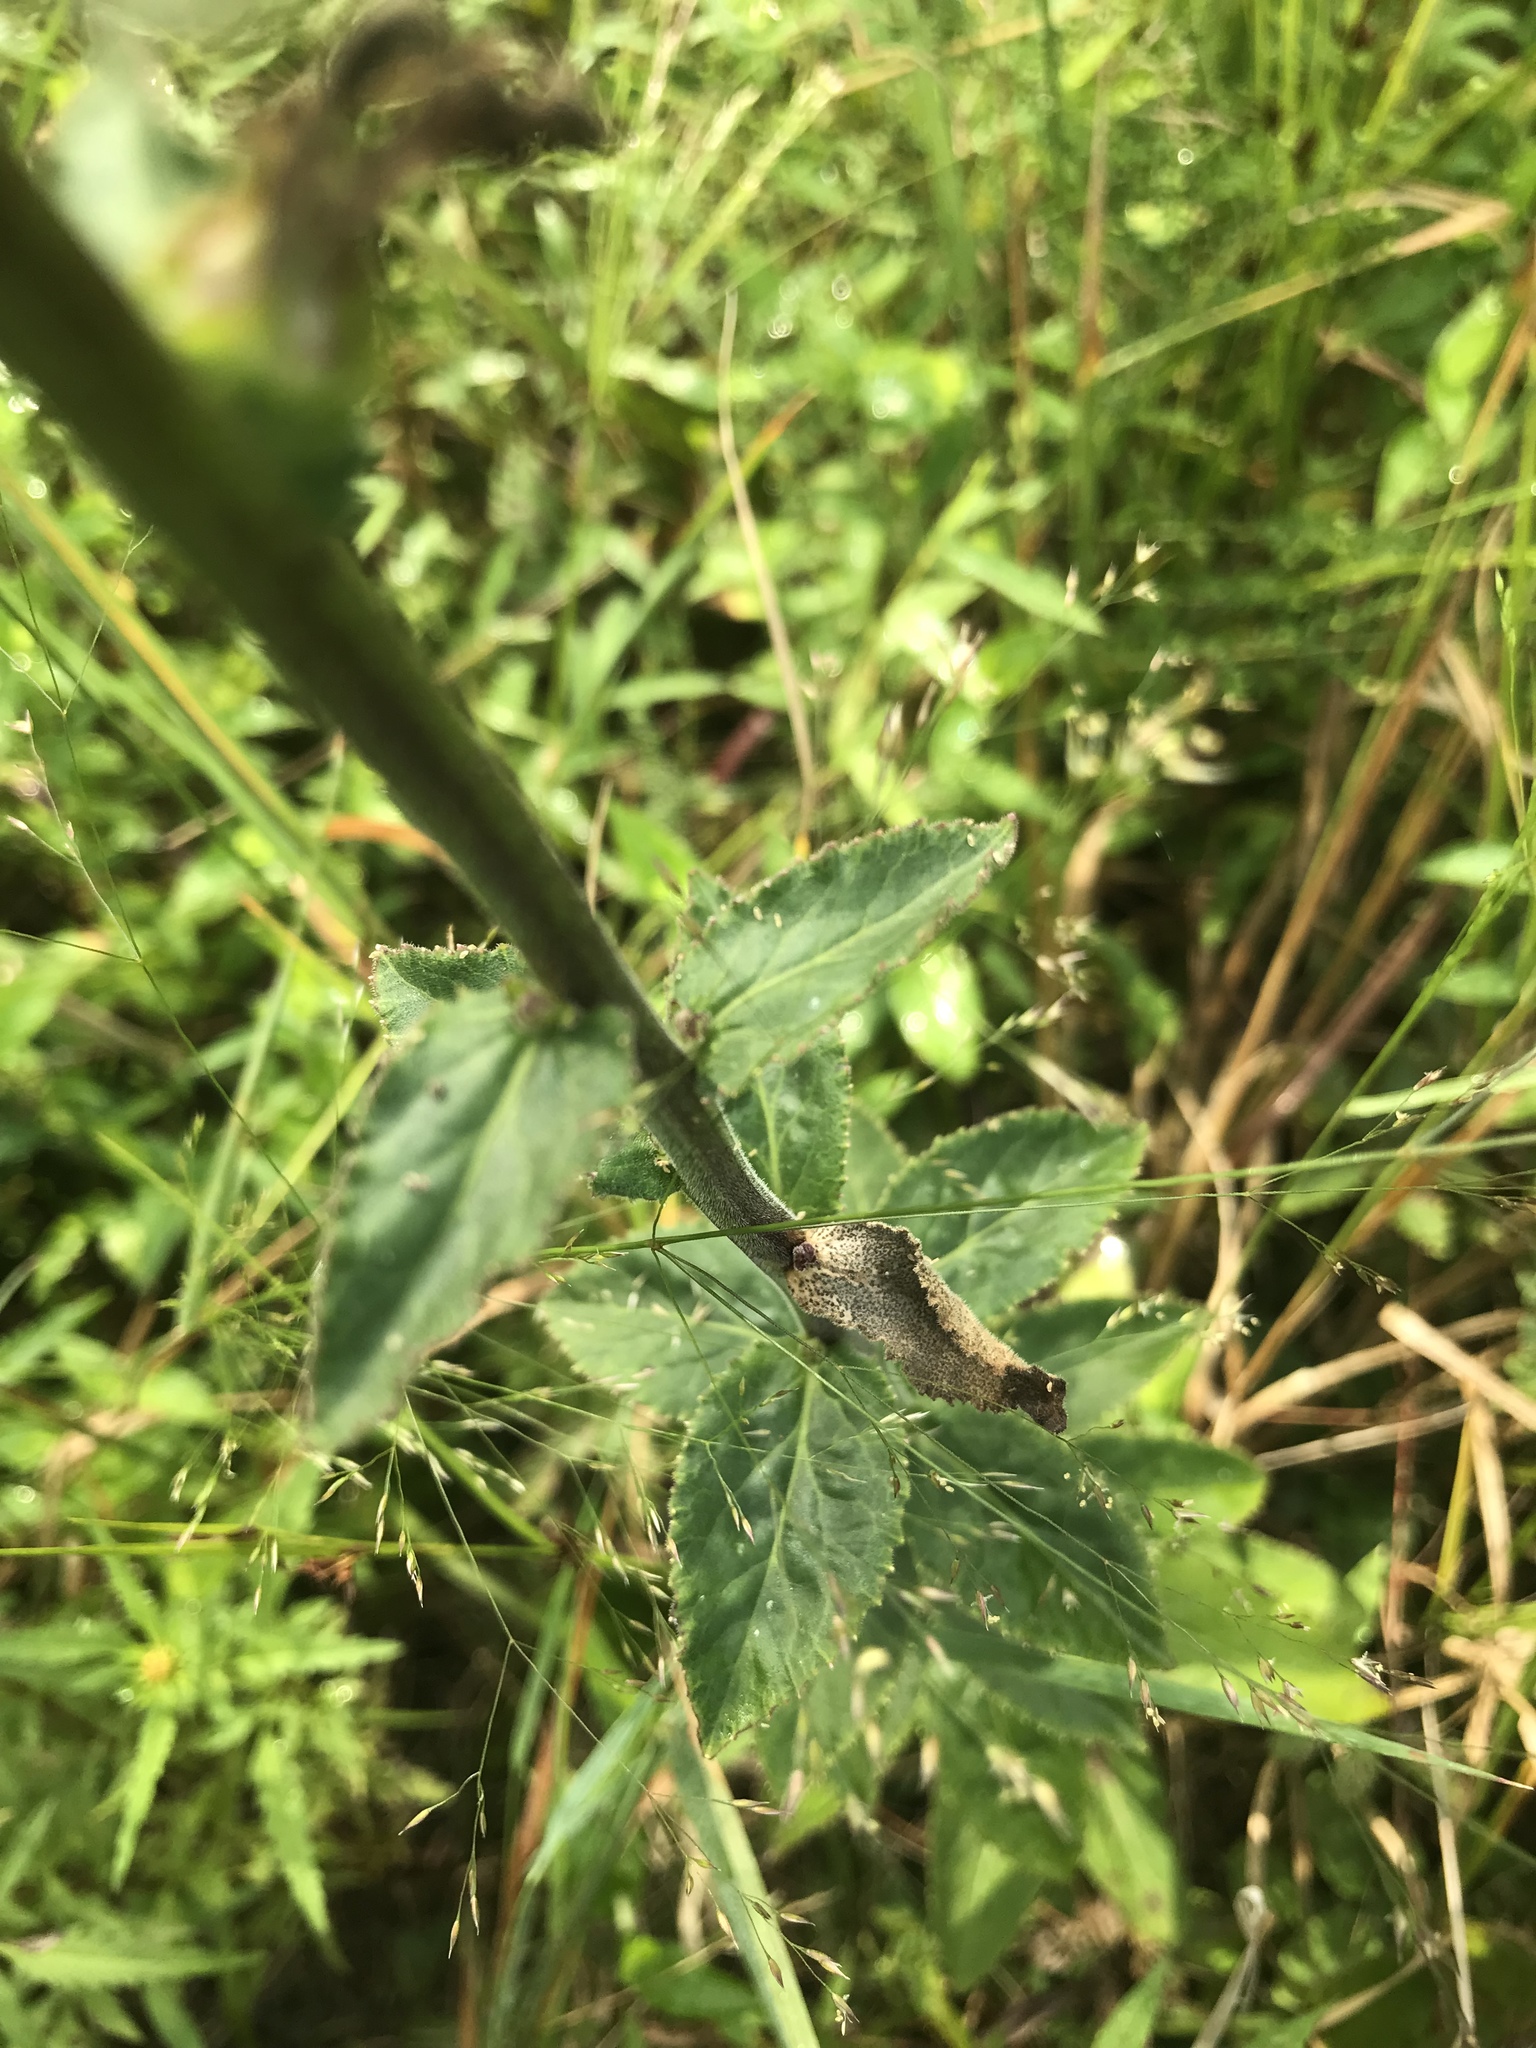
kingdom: Plantae
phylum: Tracheophyta
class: Magnoliopsida
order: Asterales
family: Campanulaceae
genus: Lobelia
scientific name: Lobelia puberula
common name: Purple dewdrop
